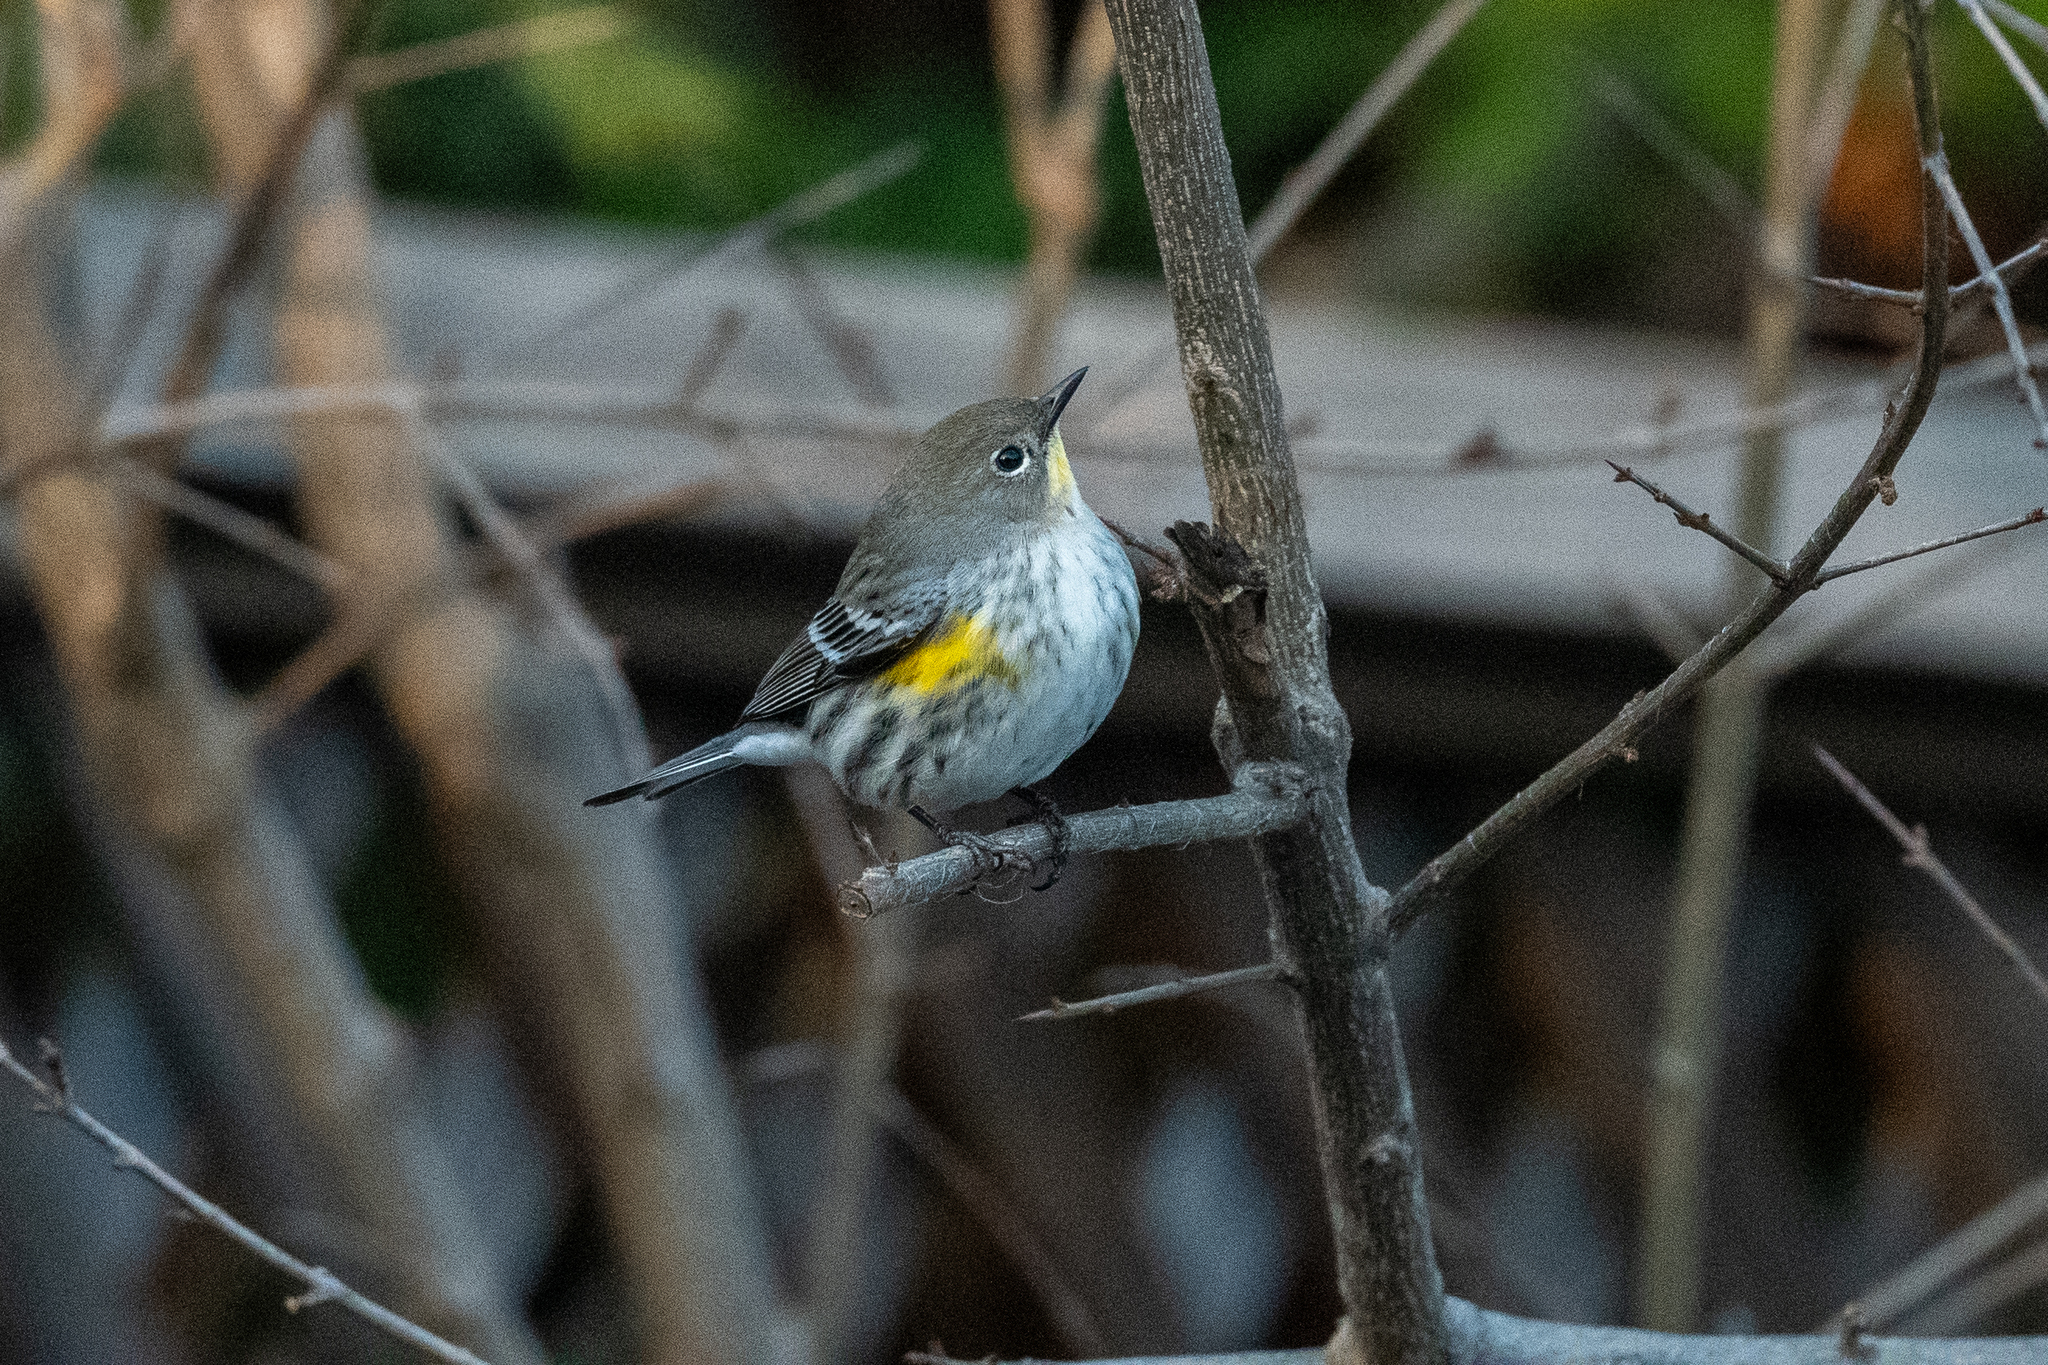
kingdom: Animalia
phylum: Chordata
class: Aves
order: Passeriformes
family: Parulidae
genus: Setophaga
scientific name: Setophaga coronata
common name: Myrtle warbler
